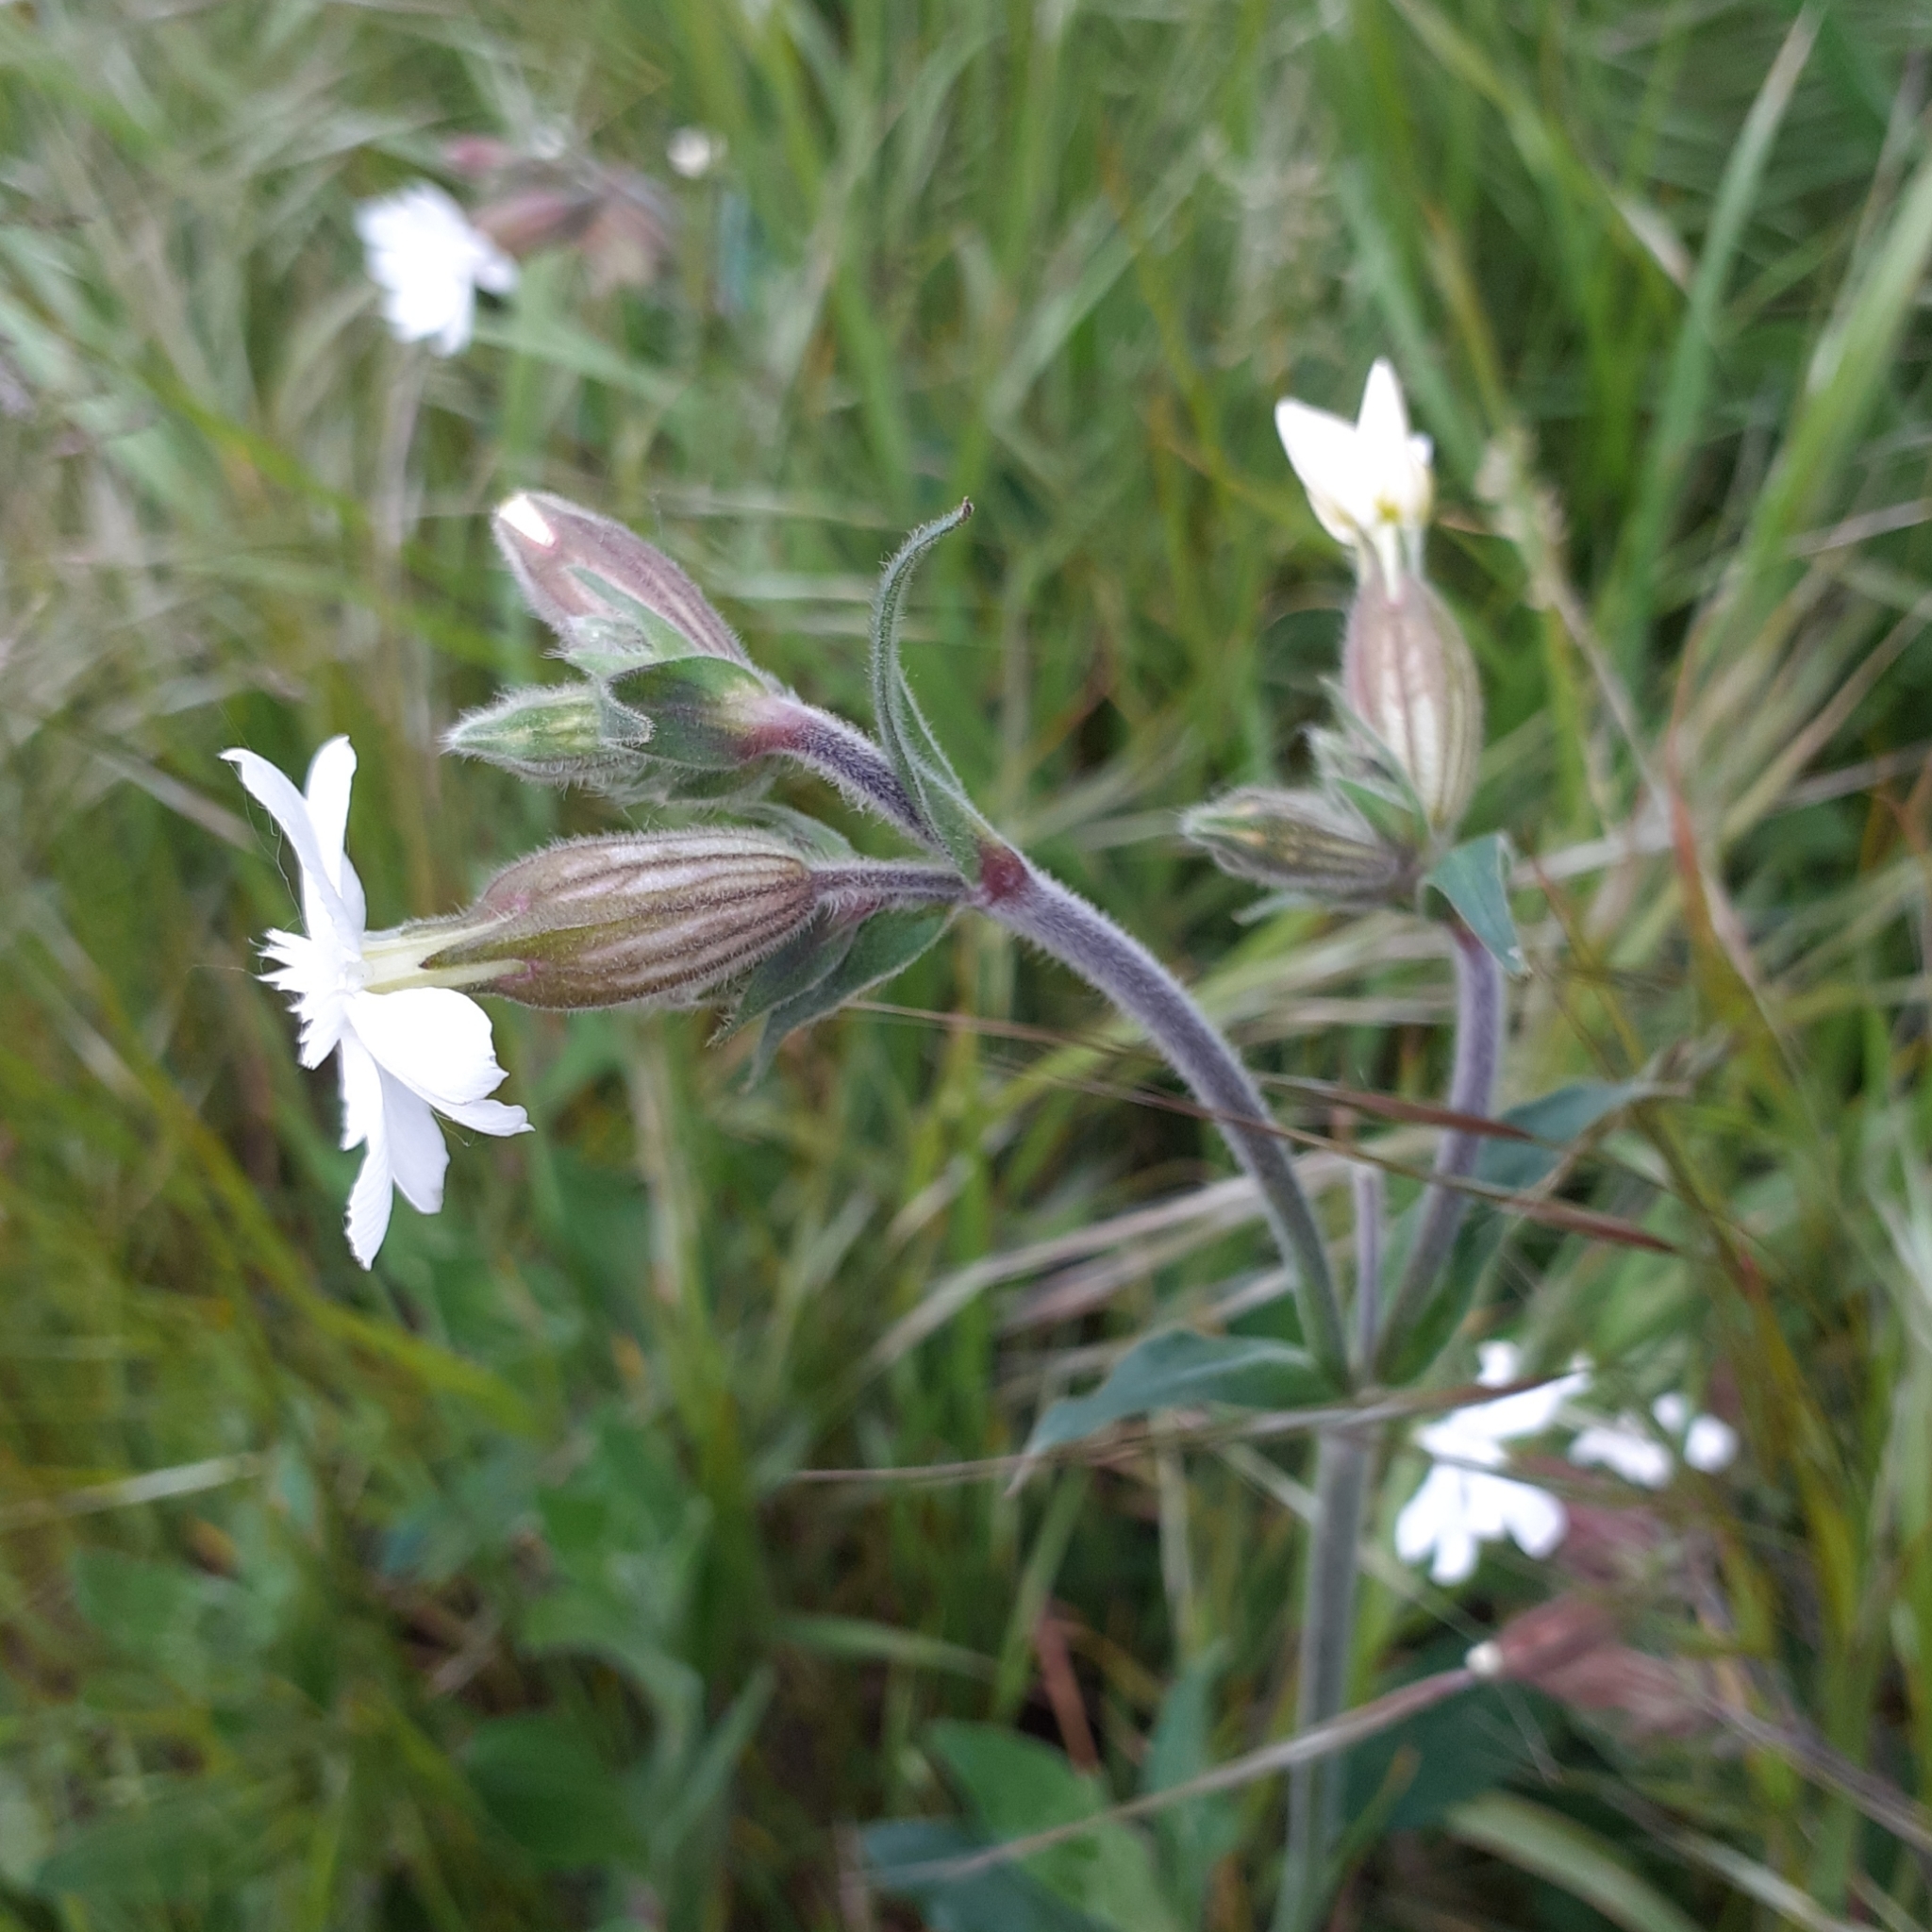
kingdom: Plantae
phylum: Tracheophyta
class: Magnoliopsida
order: Caryophyllales
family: Caryophyllaceae
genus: Silene
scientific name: Silene latifolia
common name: White campion
